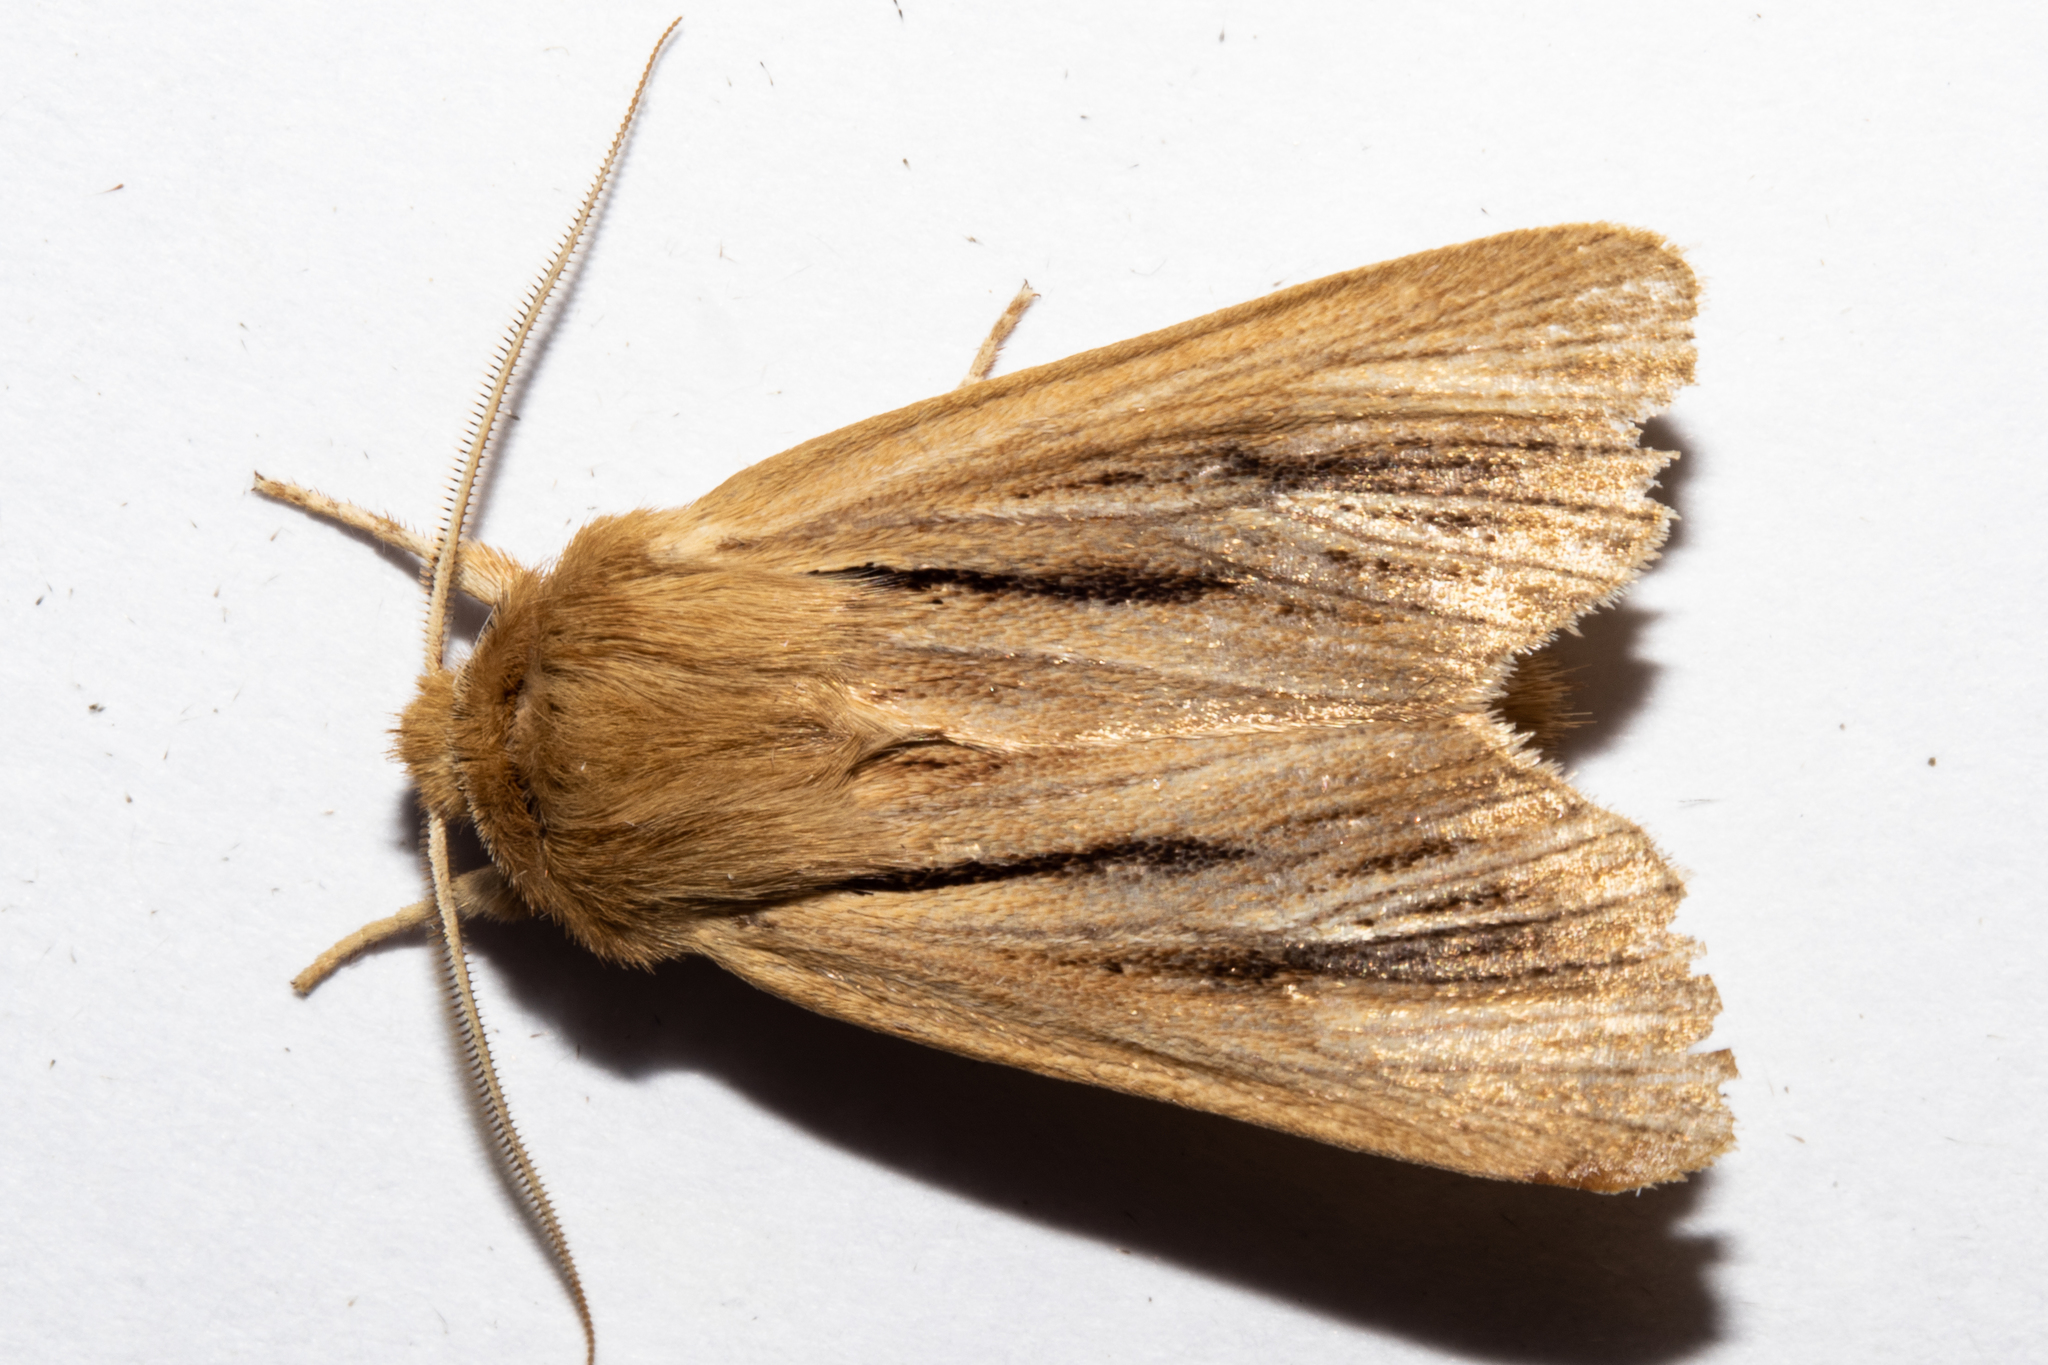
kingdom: Animalia
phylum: Arthropoda
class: Insecta
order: Lepidoptera
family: Noctuidae
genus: Ichneutica
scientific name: Ichneutica
